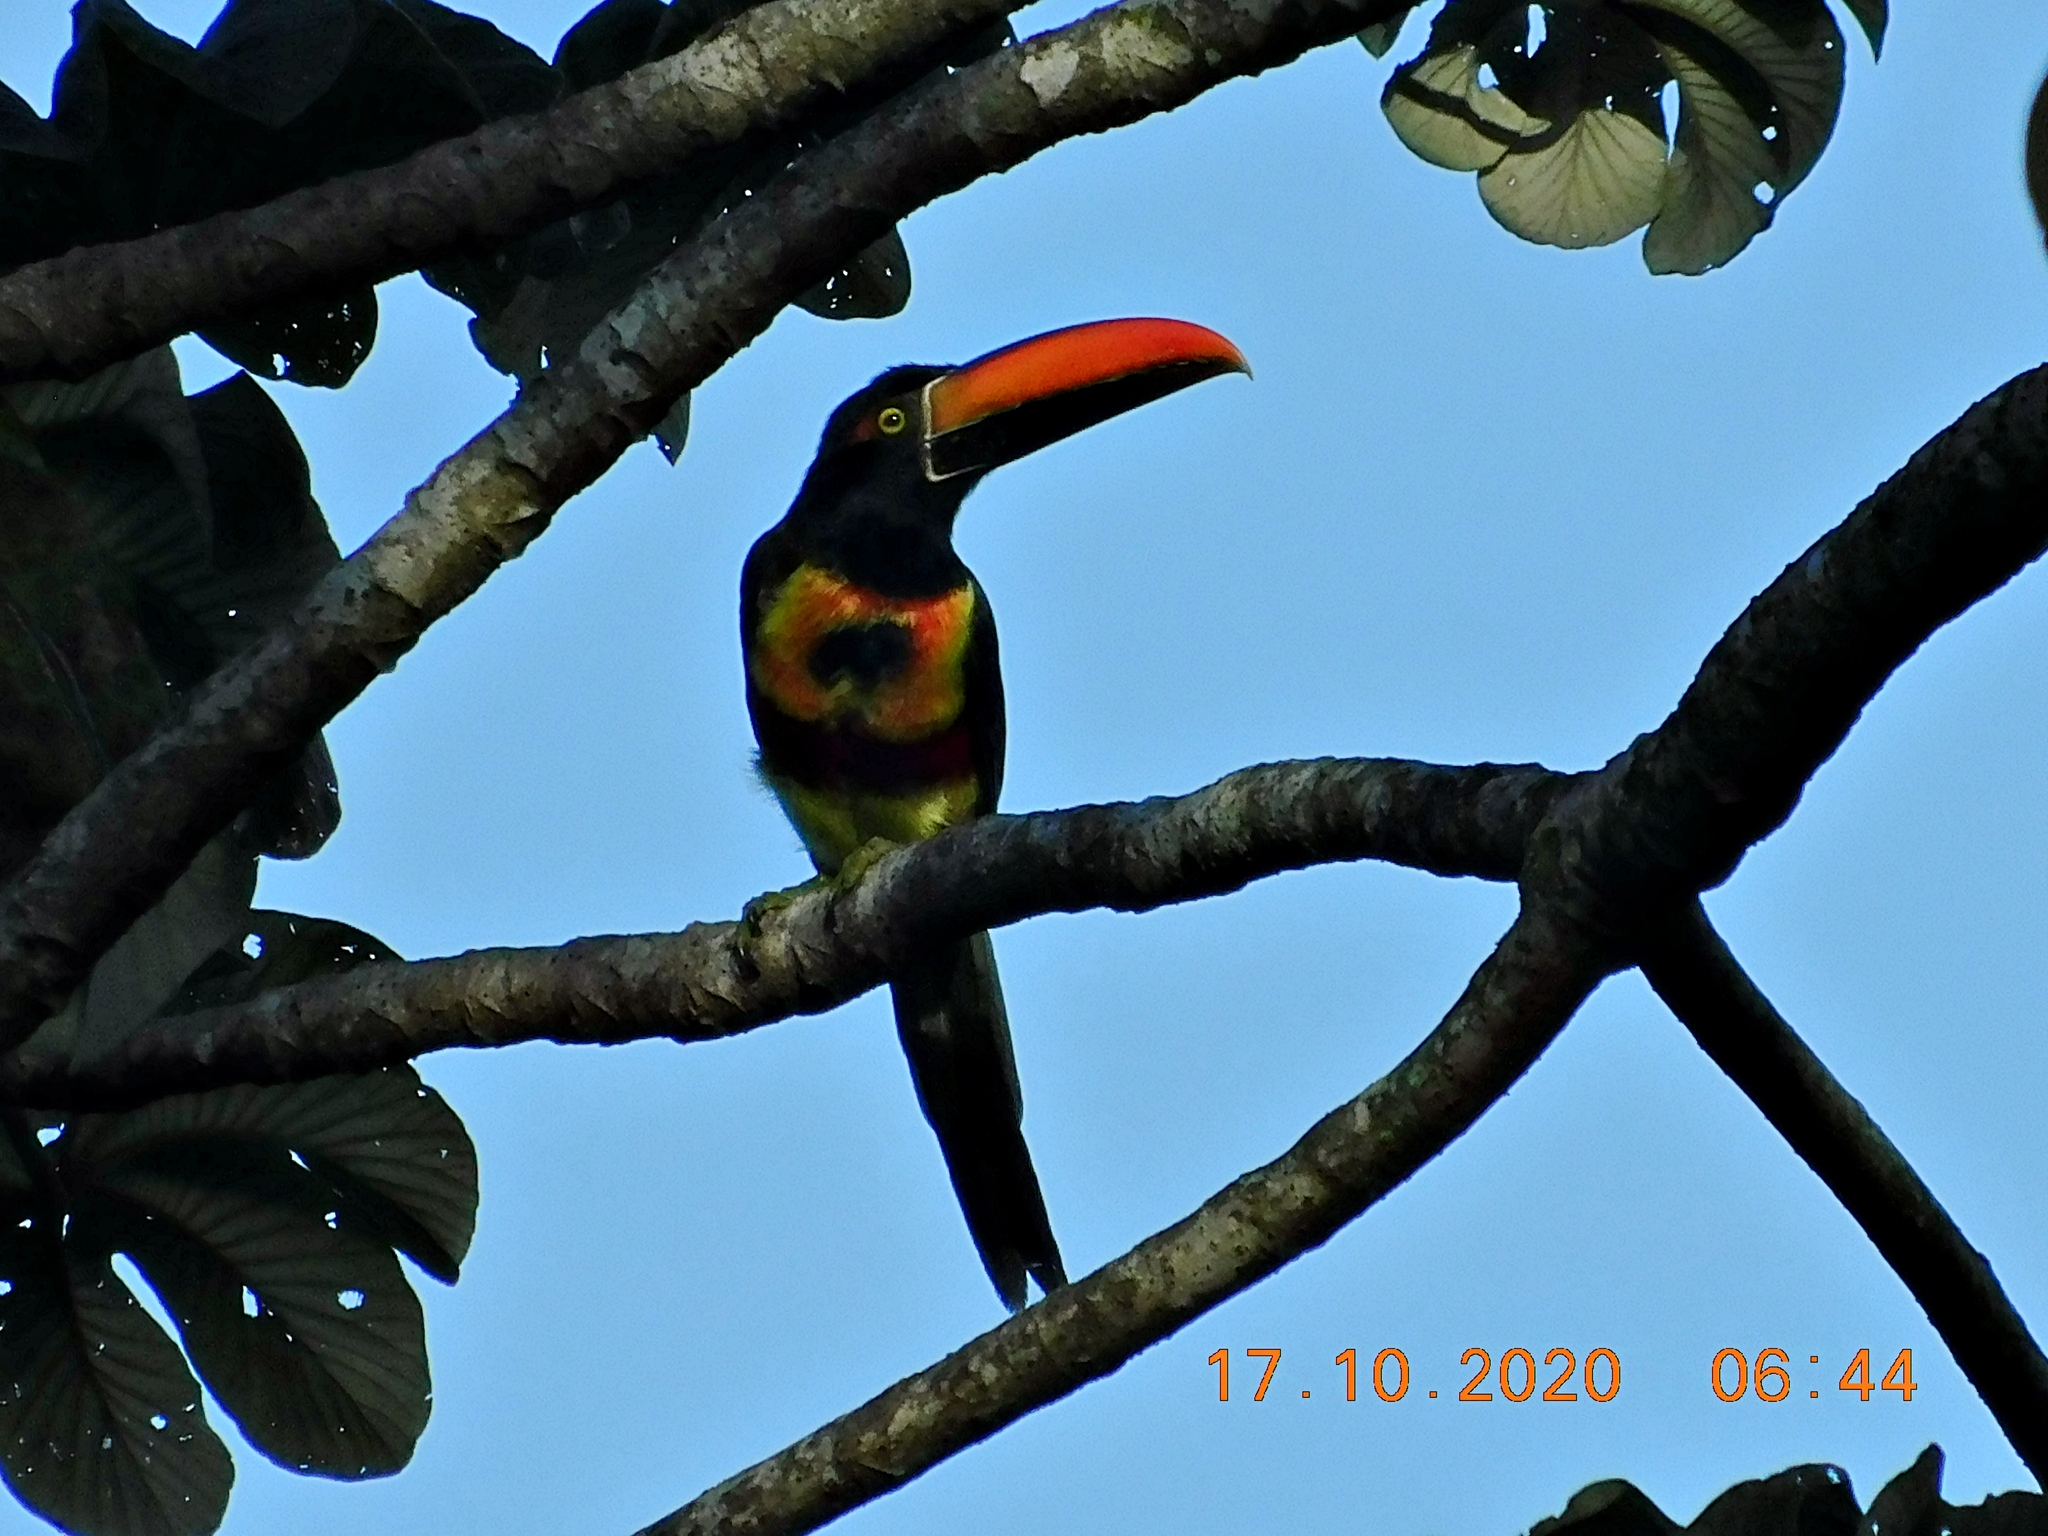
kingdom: Animalia
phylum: Chordata
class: Aves
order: Piciformes
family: Ramphastidae
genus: Pteroglossus
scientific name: Pteroglossus frantzii
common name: Fiery-billed aracari
